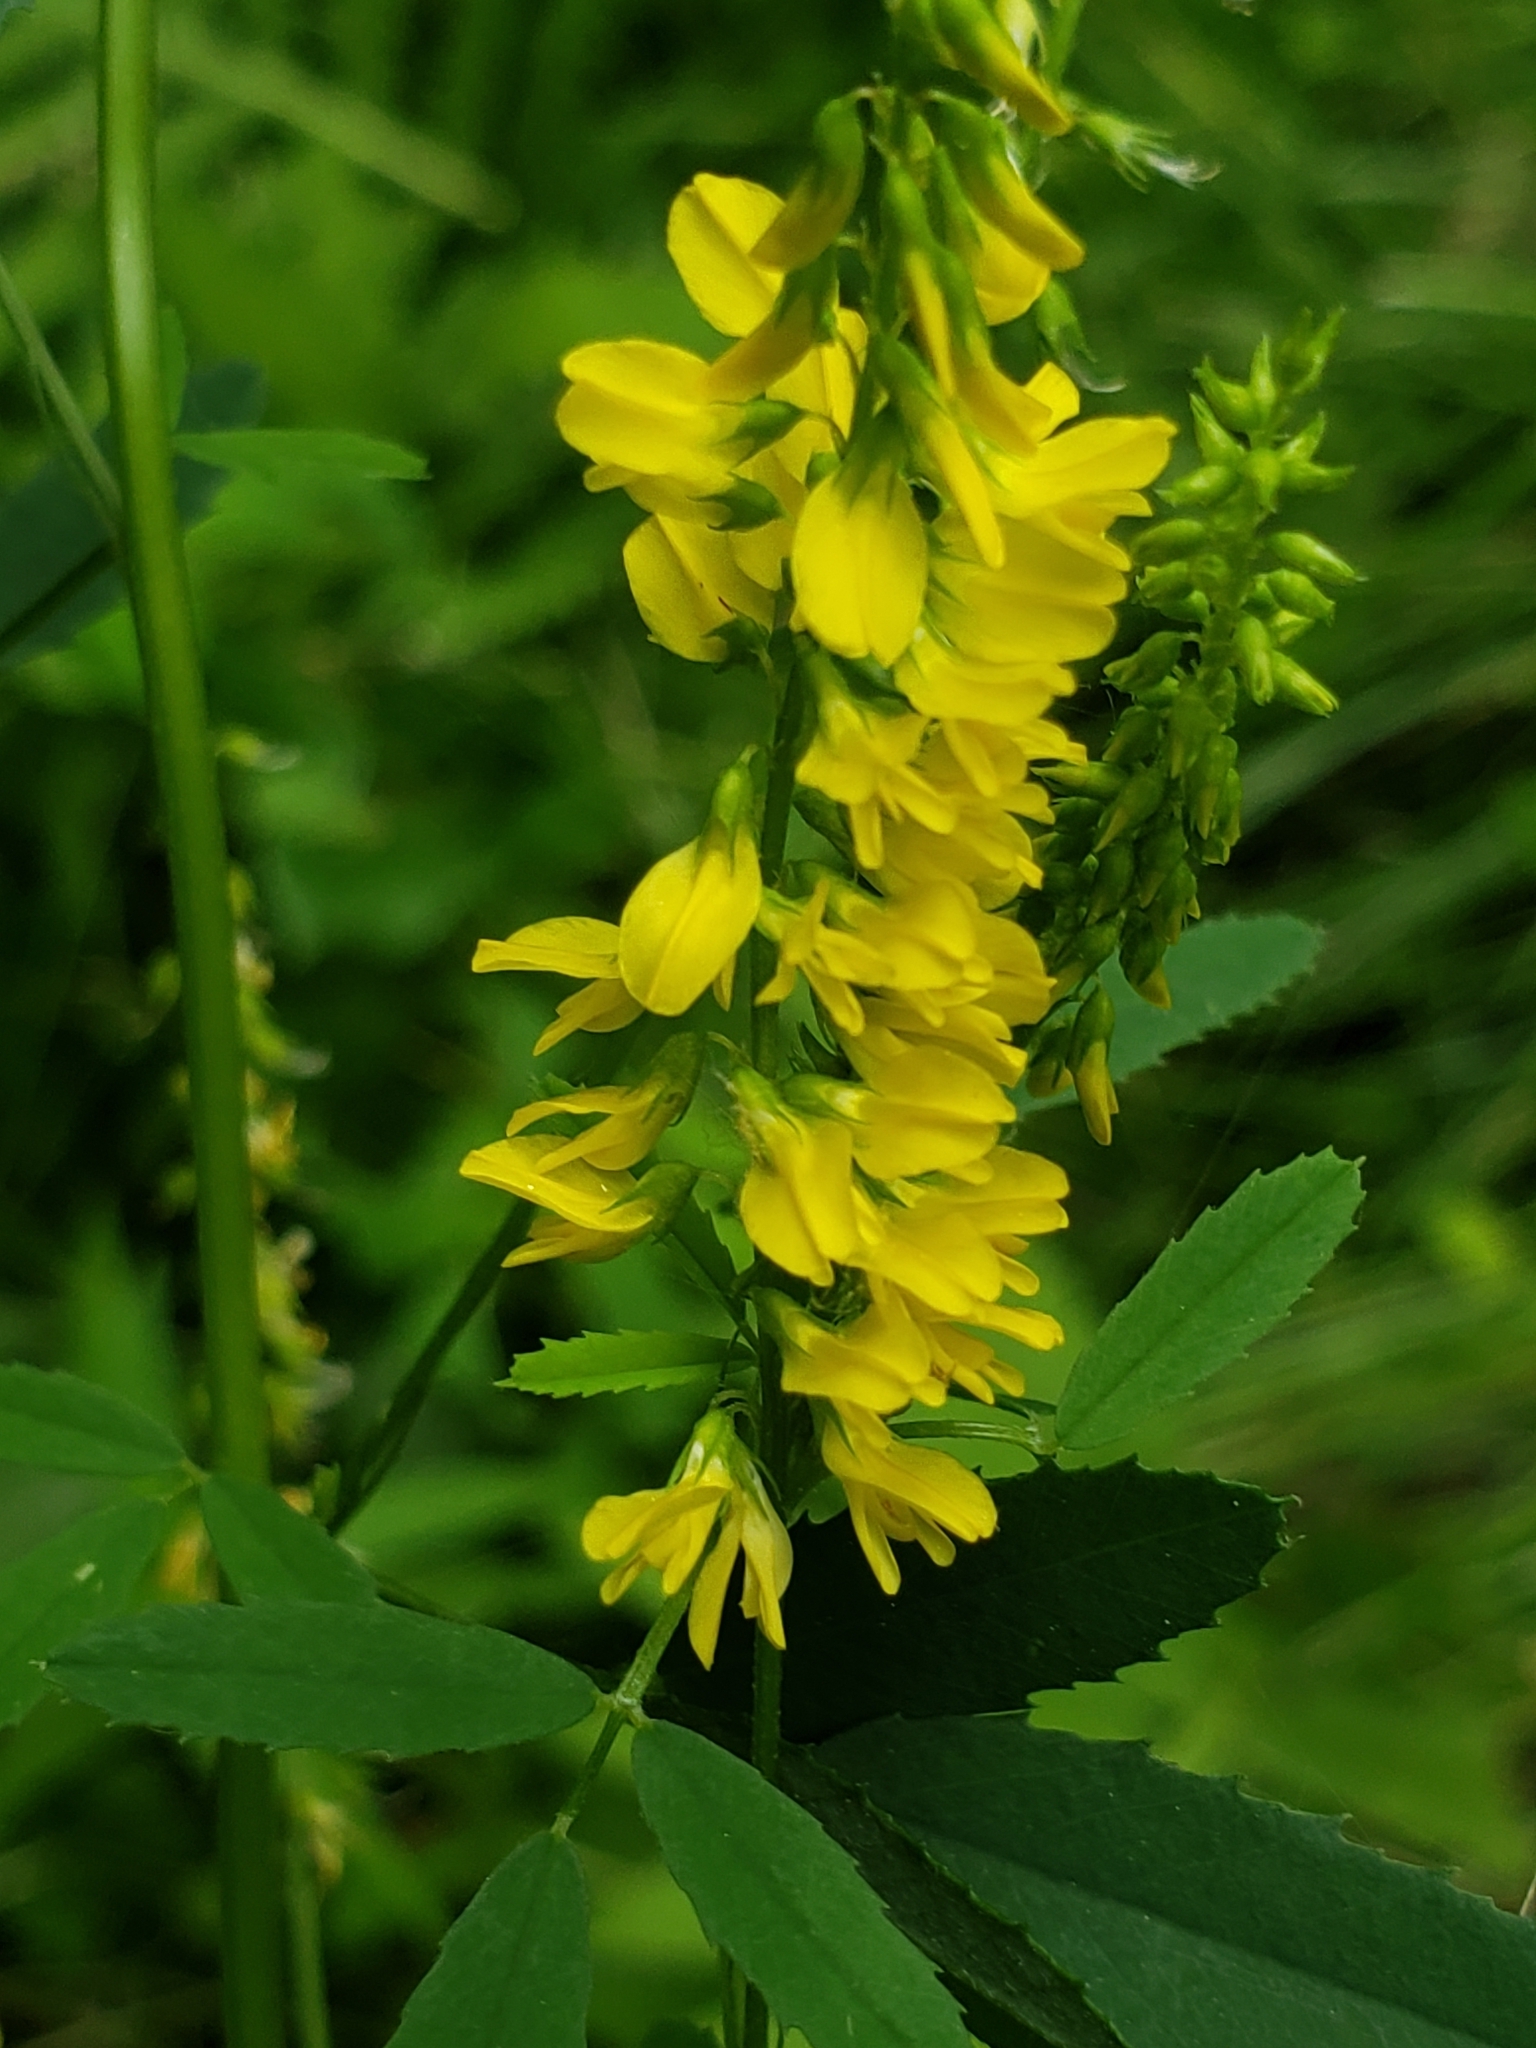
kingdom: Plantae
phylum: Tracheophyta
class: Magnoliopsida
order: Fabales
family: Fabaceae
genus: Melilotus
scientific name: Melilotus officinalis
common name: Sweetclover
